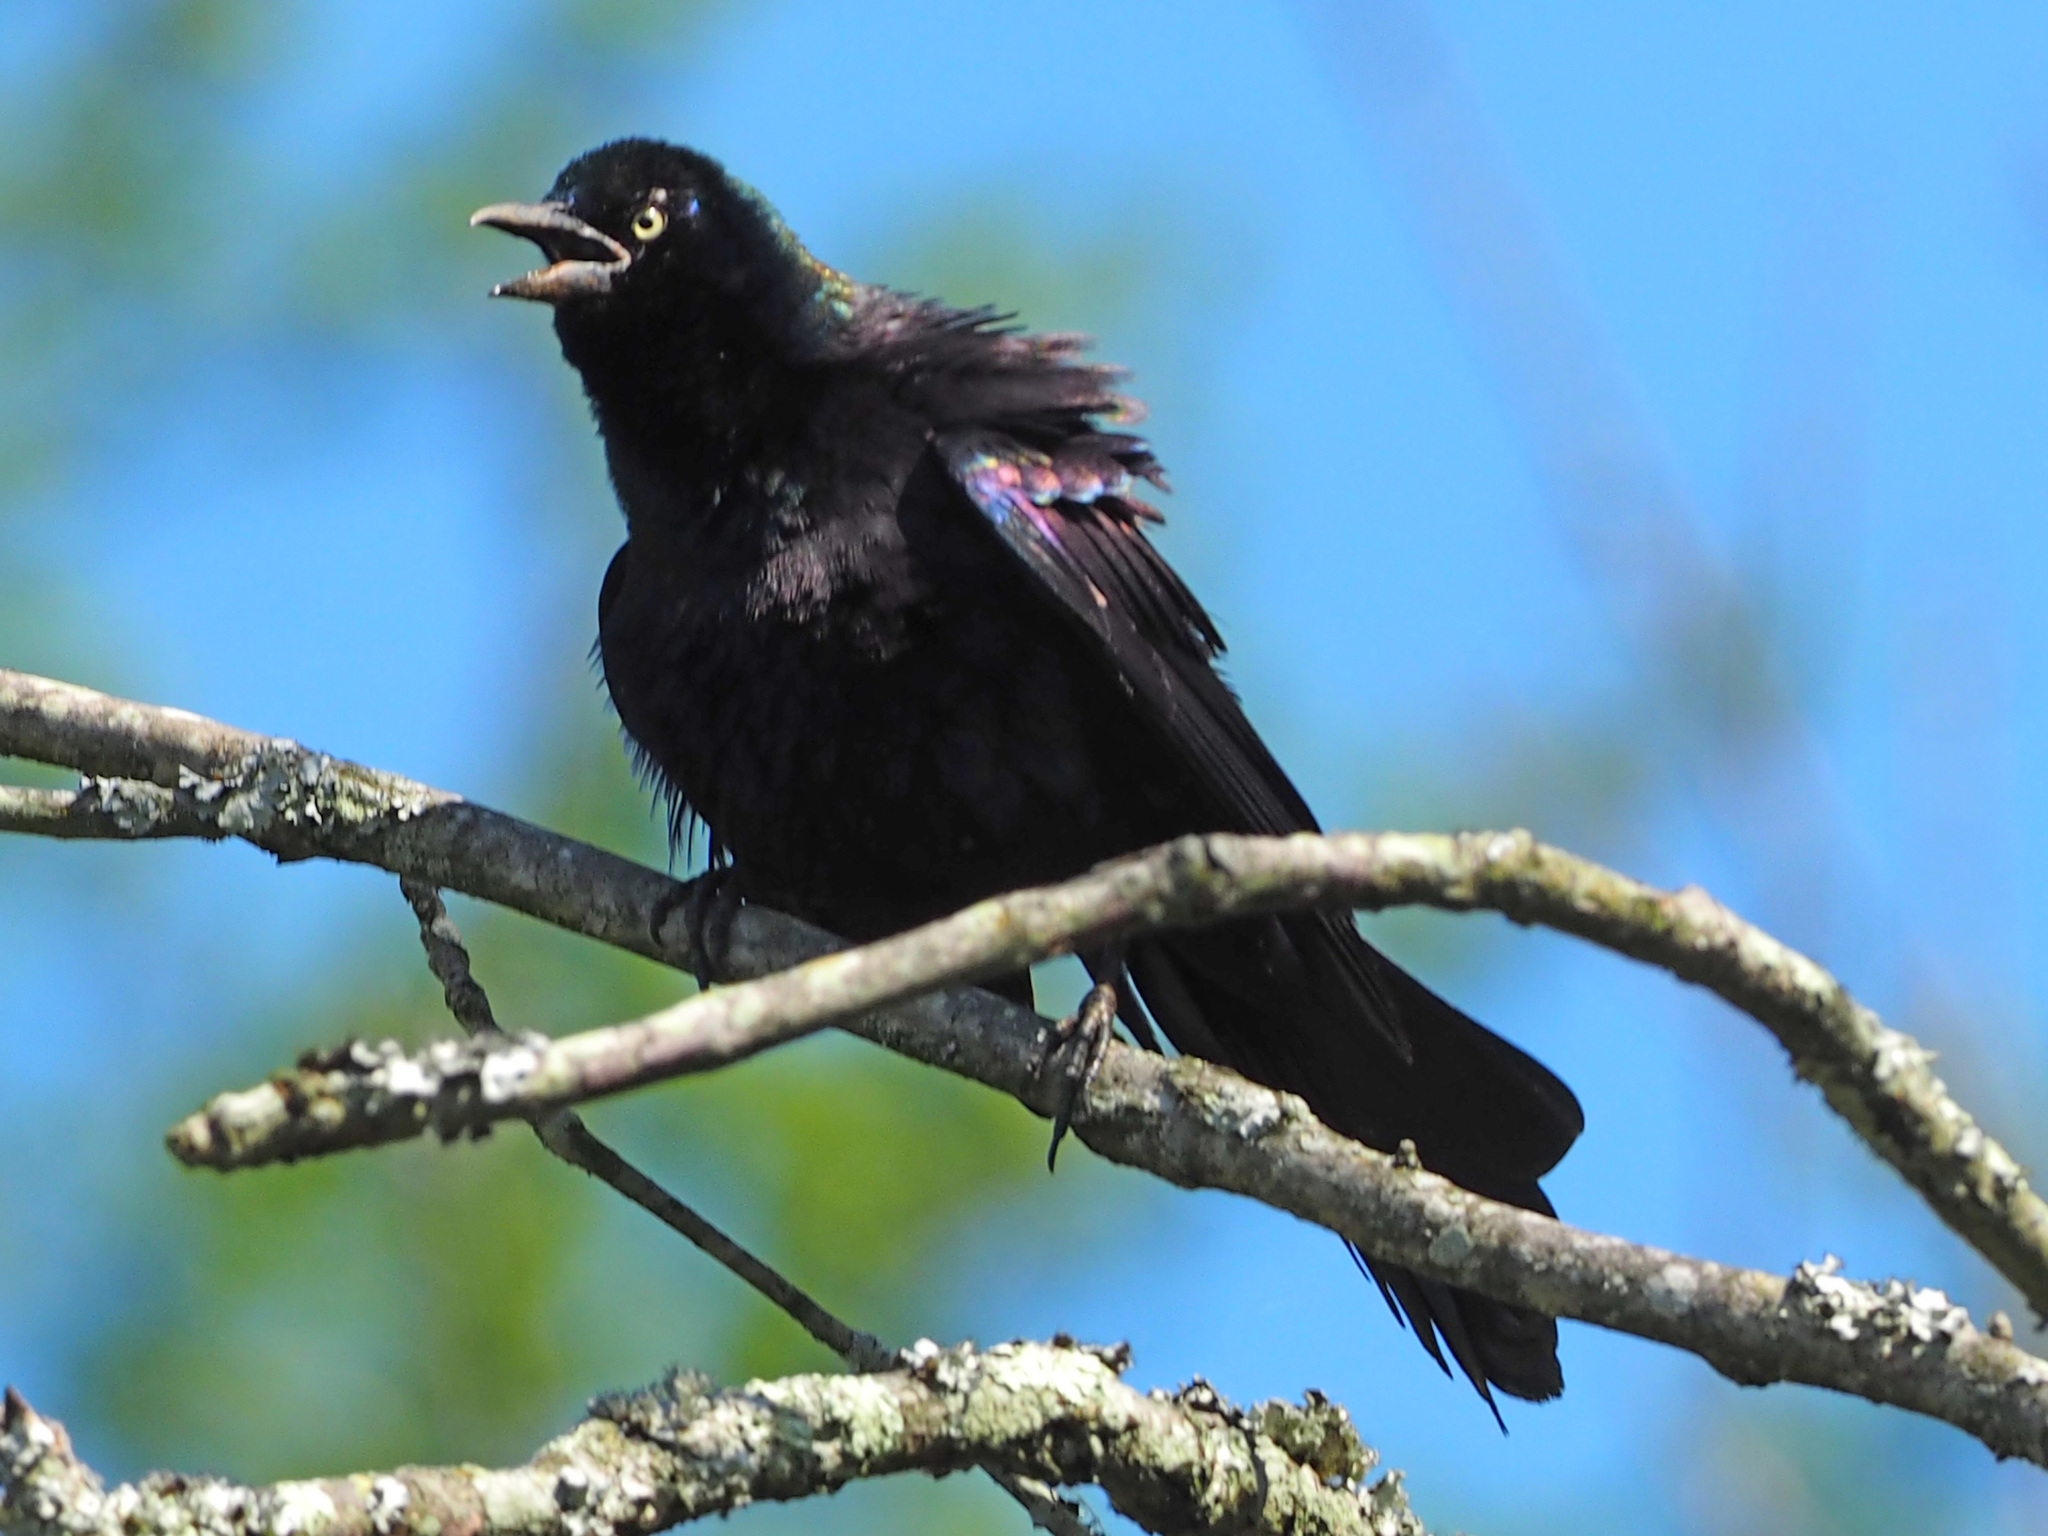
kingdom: Animalia
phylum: Chordata
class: Aves
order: Passeriformes
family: Icteridae
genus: Quiscalus
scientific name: Quiscalus quiscula
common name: Common grackle
